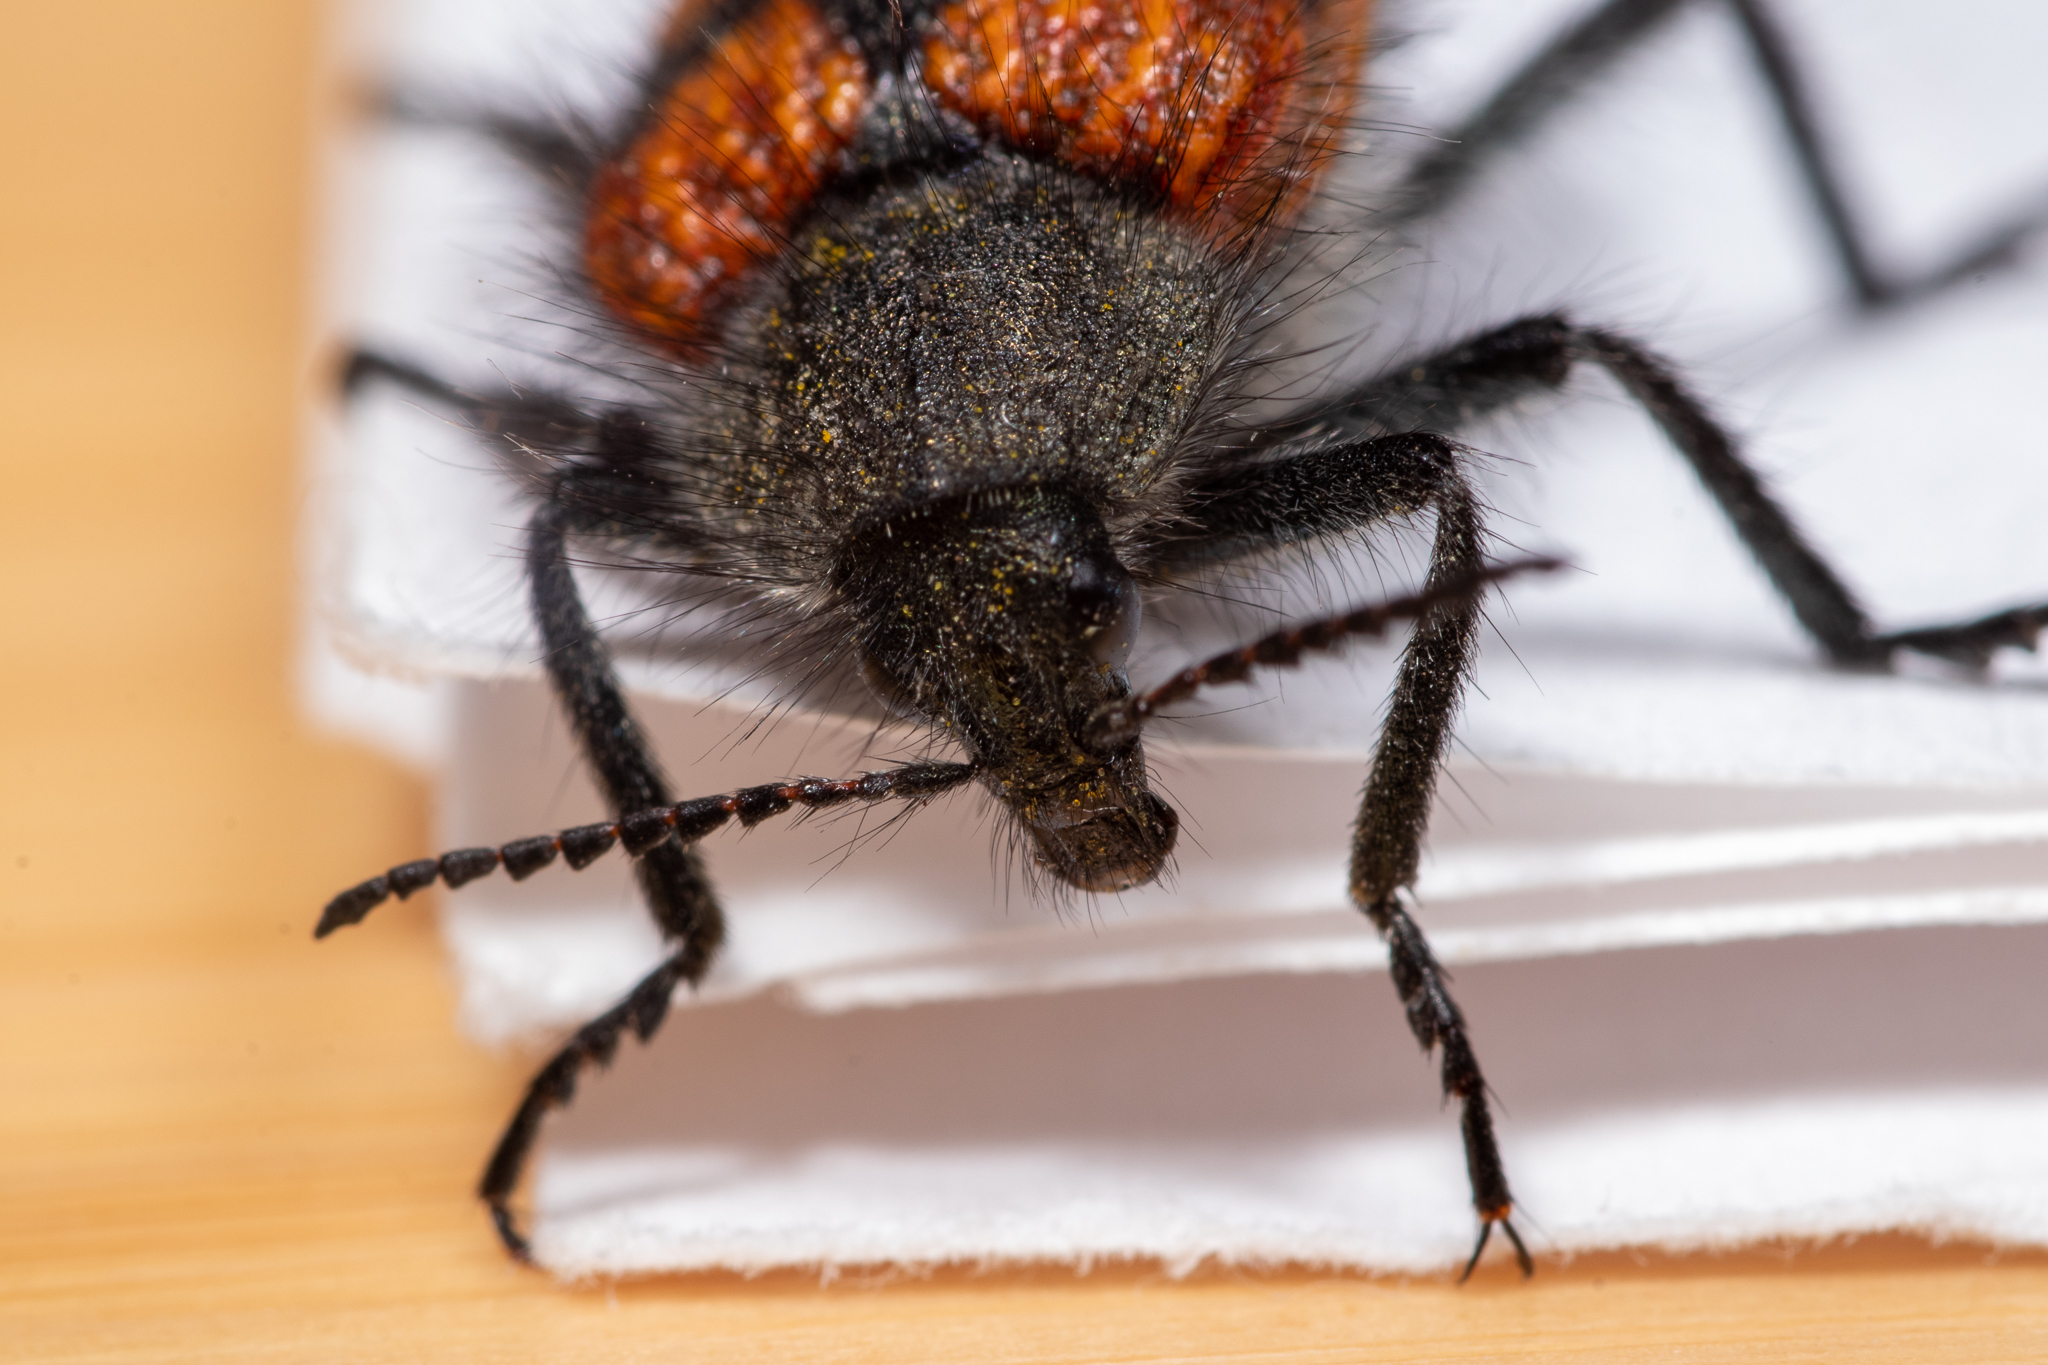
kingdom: Animalia
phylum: Arthropoda
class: Insecta
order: Coleoptera
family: Melyridae
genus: Astylus
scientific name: Astylus
